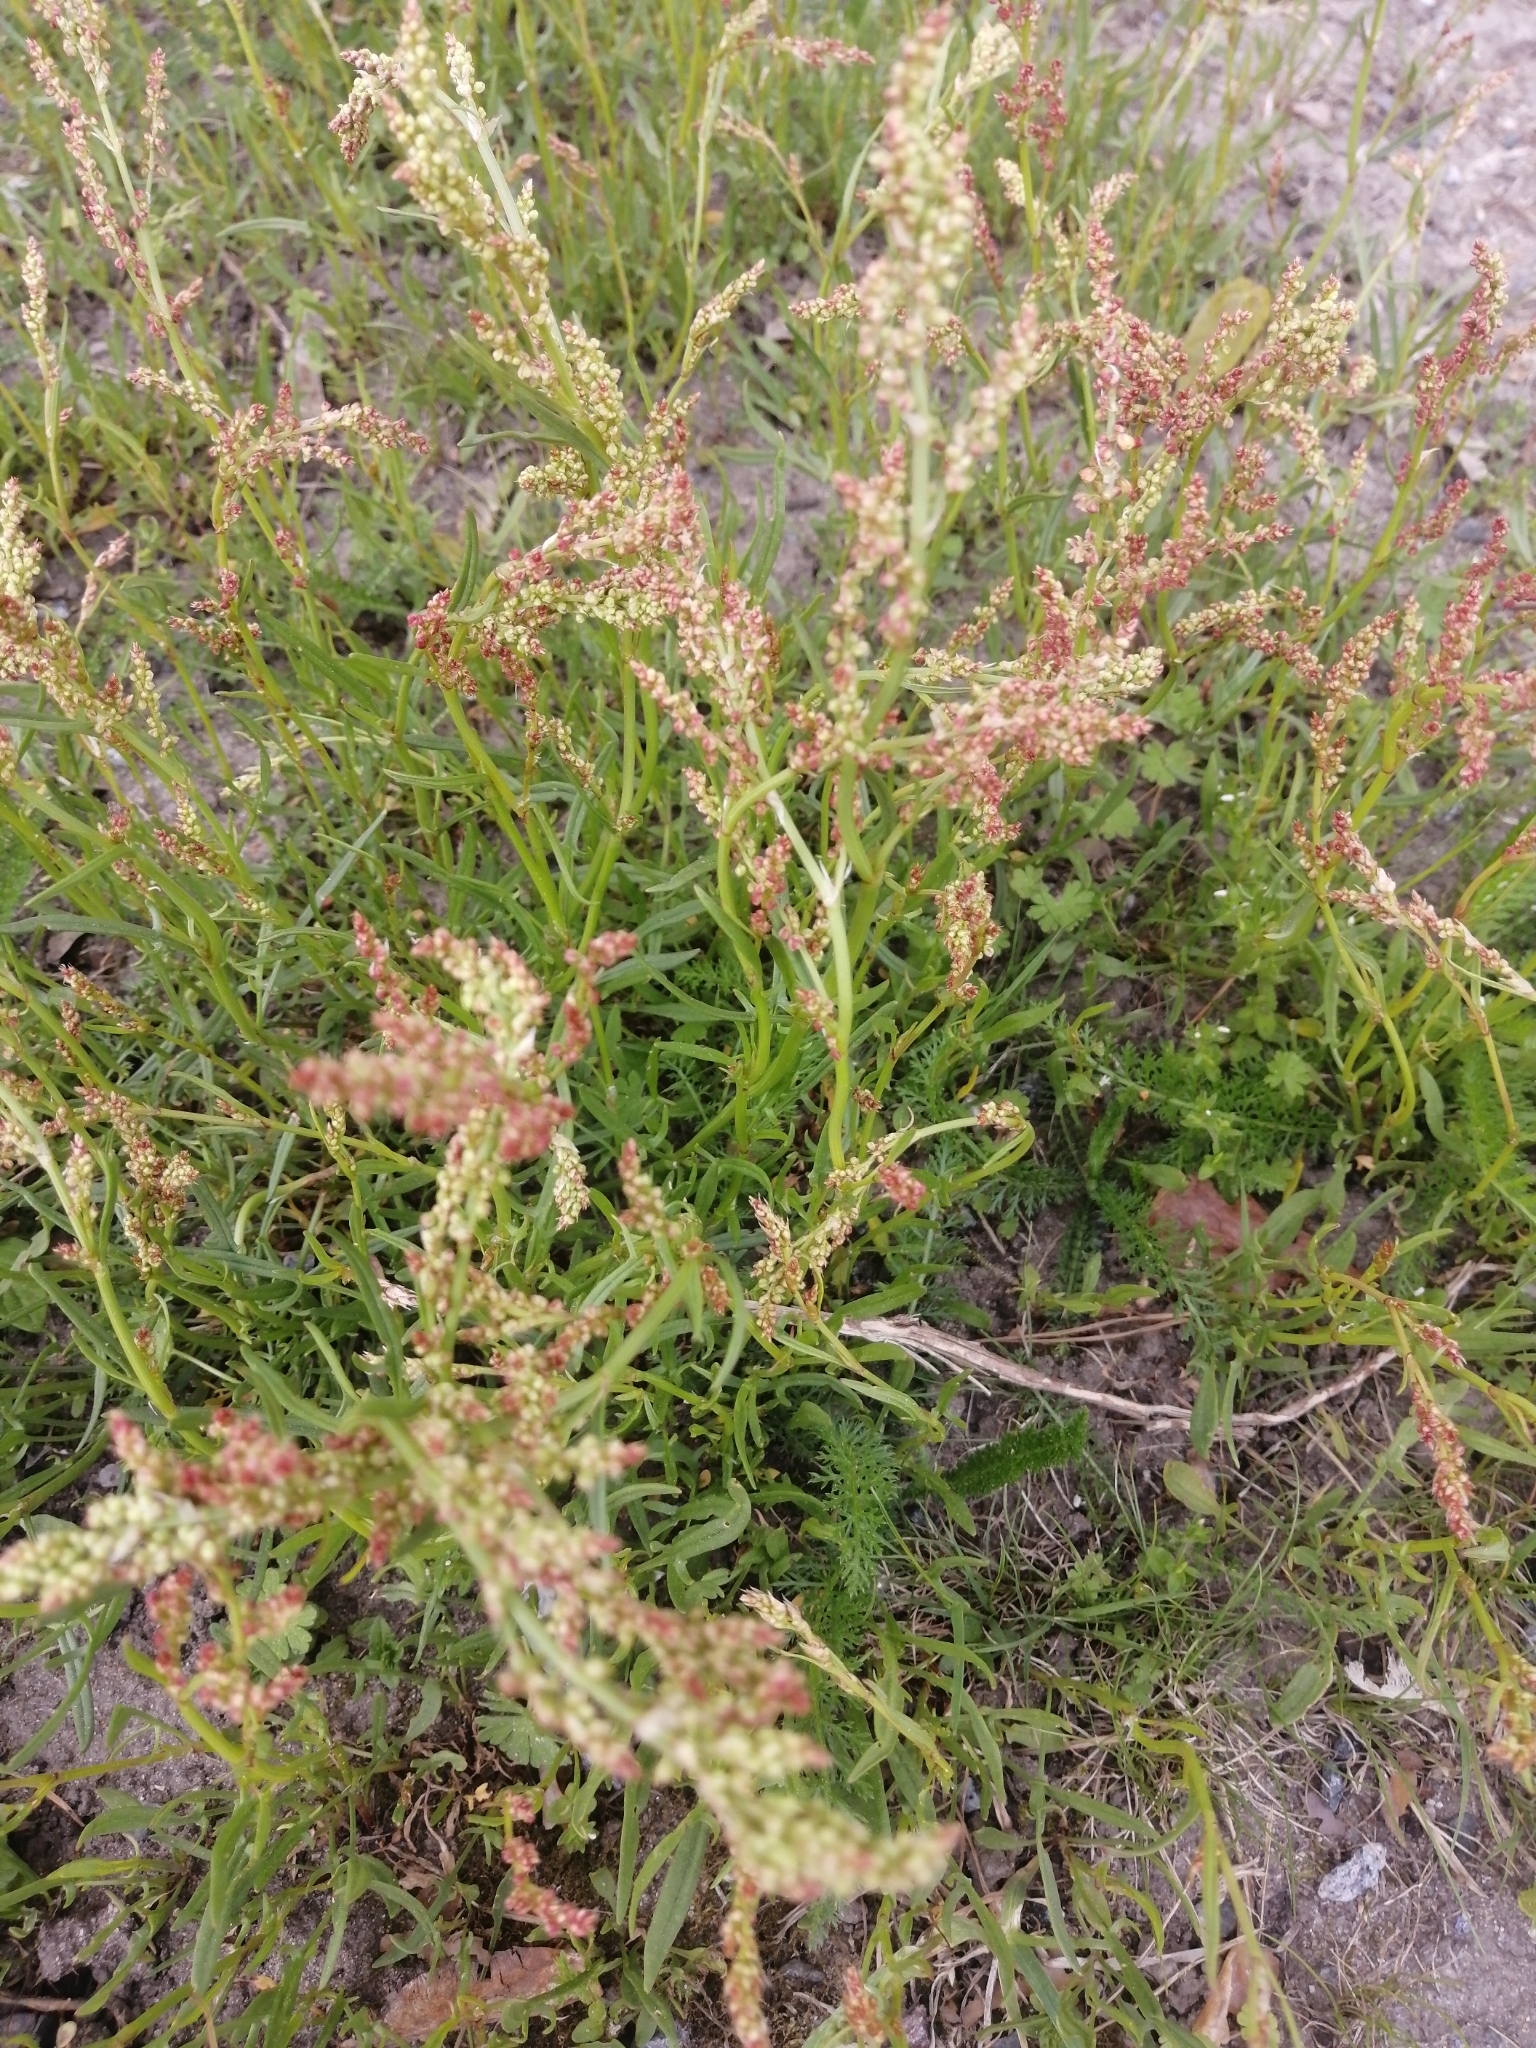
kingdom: Plantae
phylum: Tracheophyta
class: Magnoliopsida
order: Caryophyllales
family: Polygonaceae
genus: Rumex
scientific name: Rumex acetosella
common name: Common sheep sorrel
